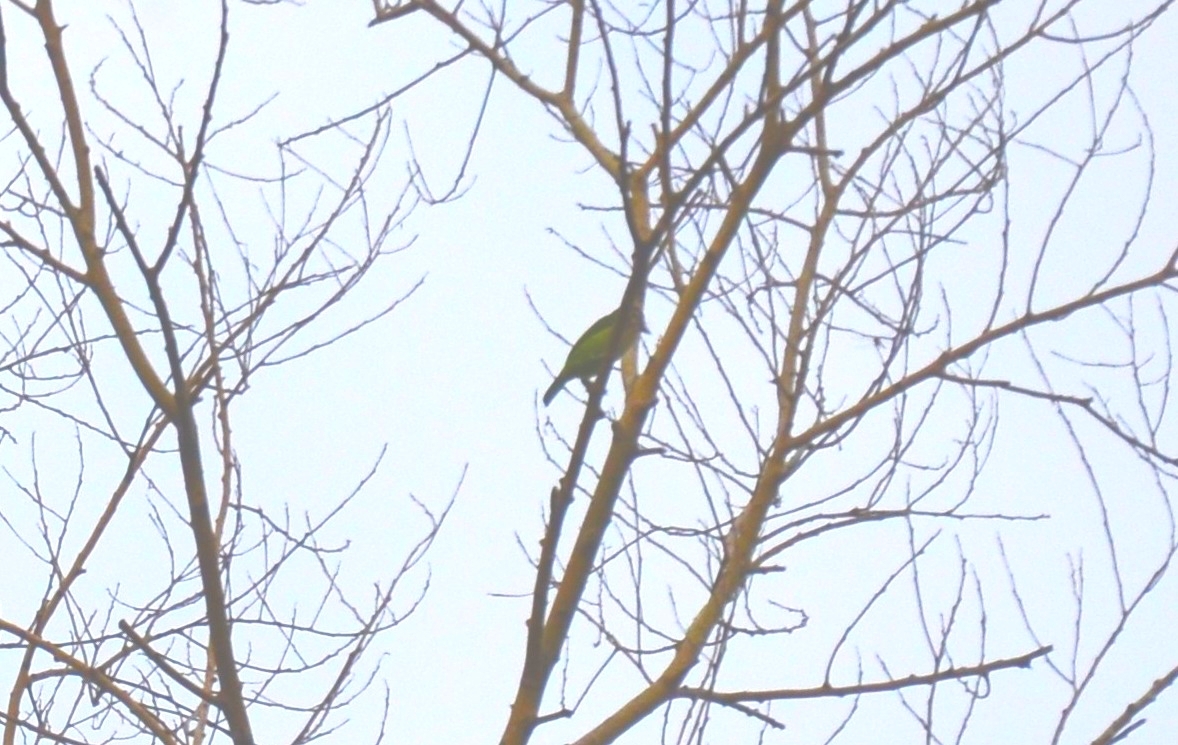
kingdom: Animalia
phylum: Chordata
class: Aves
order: Piciformes
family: Megalaimidae
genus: Psilopogon
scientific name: Psilopogon viridis
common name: White-cheeked barbet
